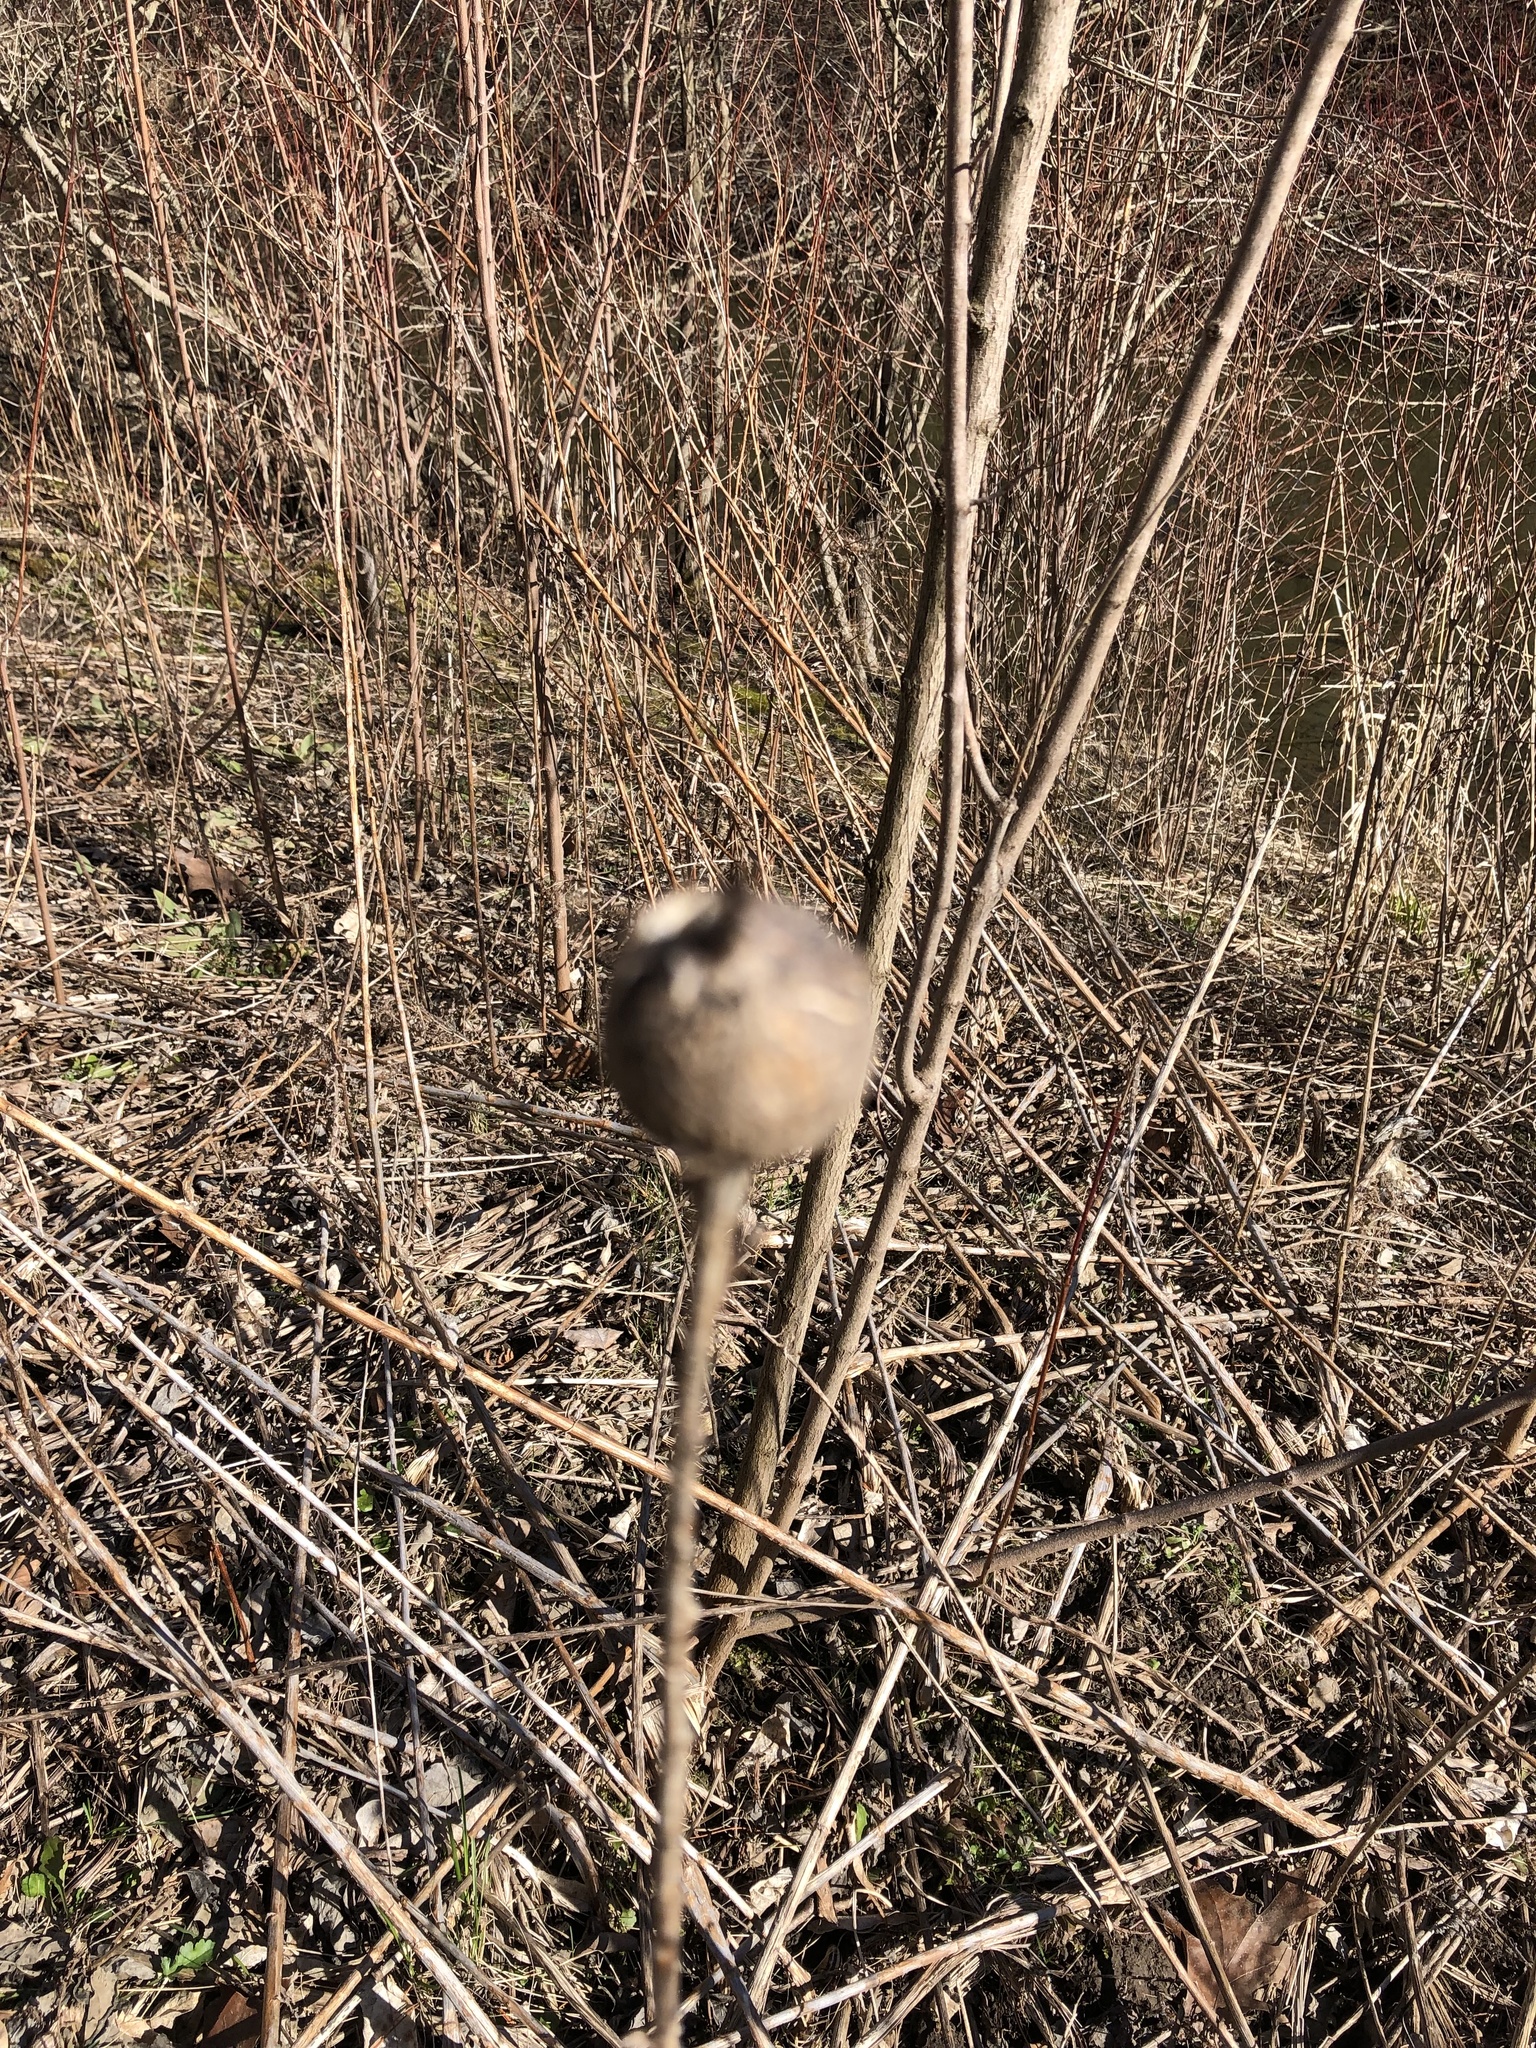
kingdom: Animalia
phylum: Arthropoda
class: Insecta
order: Diptera
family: Tephritidae
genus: Eurosta
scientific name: Eurosta solidaginis
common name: Goldenrod gall fly
